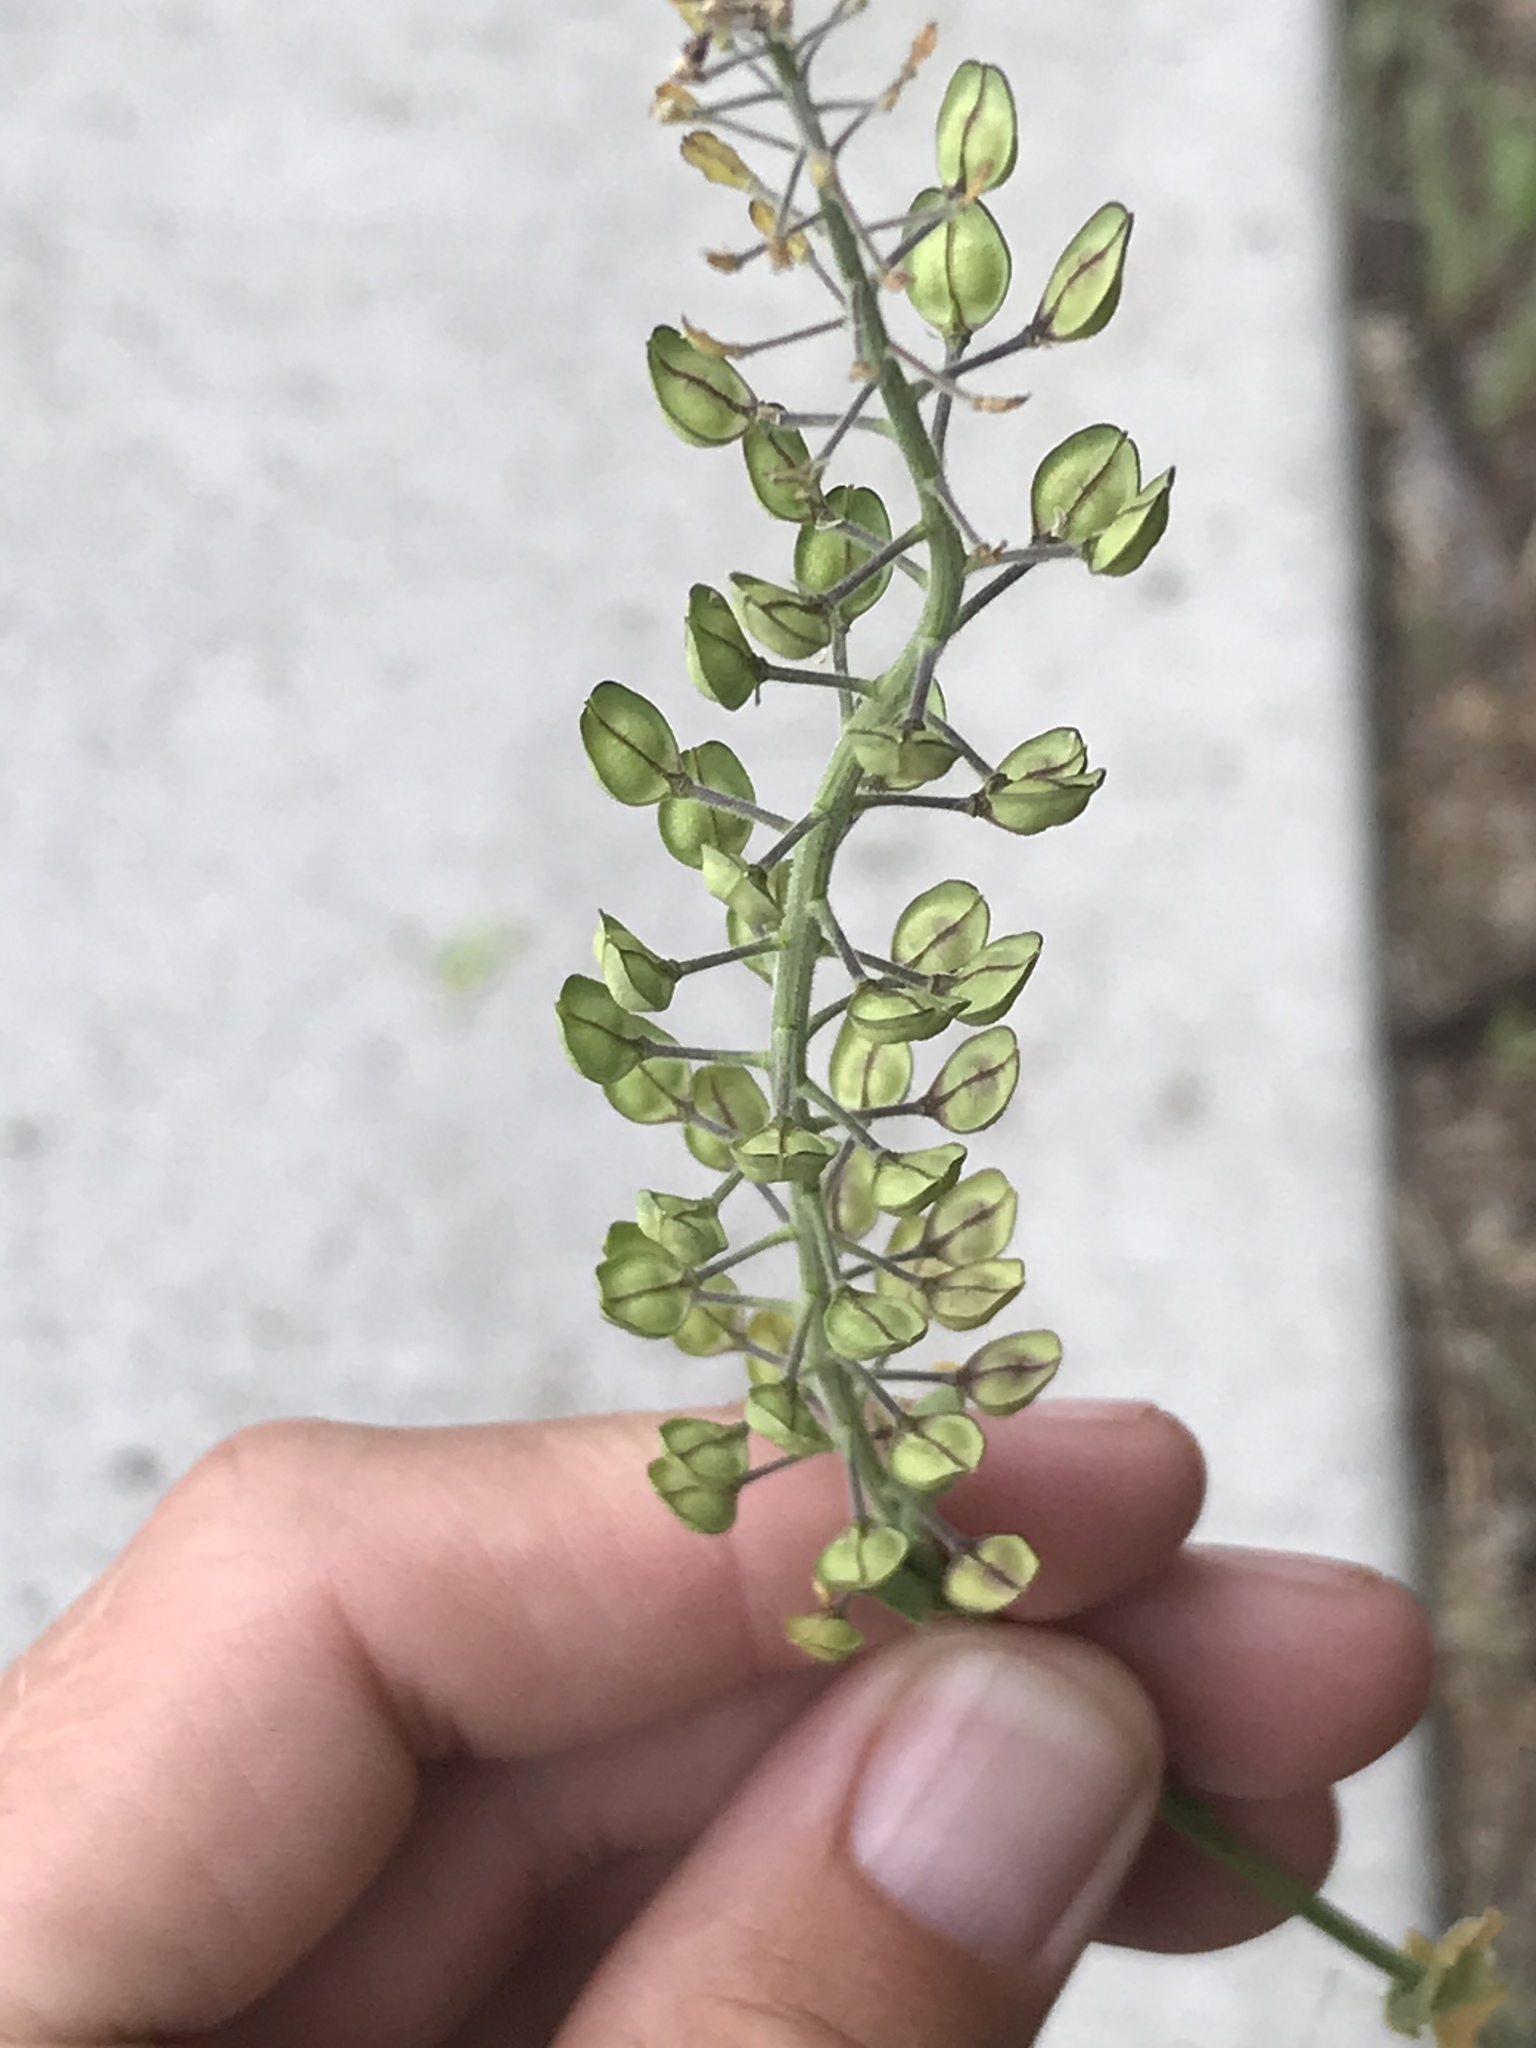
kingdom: Plantae
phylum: Tracheophyta
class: Magnoliopsida
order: Brassicales
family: Brassicaceae
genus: Lepidium
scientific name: Lepidium campestre
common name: Field pepperwort
